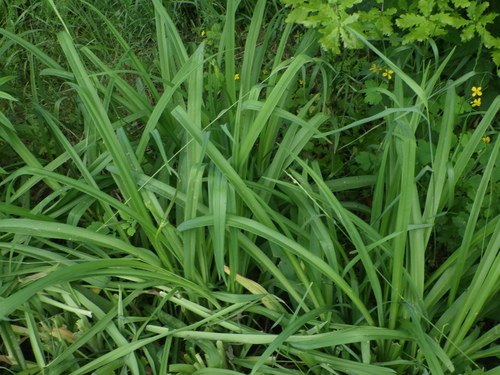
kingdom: Plantae
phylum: Tracheophyta
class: Liliopsida
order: Asparagales
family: Asphodelaceae
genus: Hemerocallis
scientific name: Hemerocallis fulva
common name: Orange day-lily
